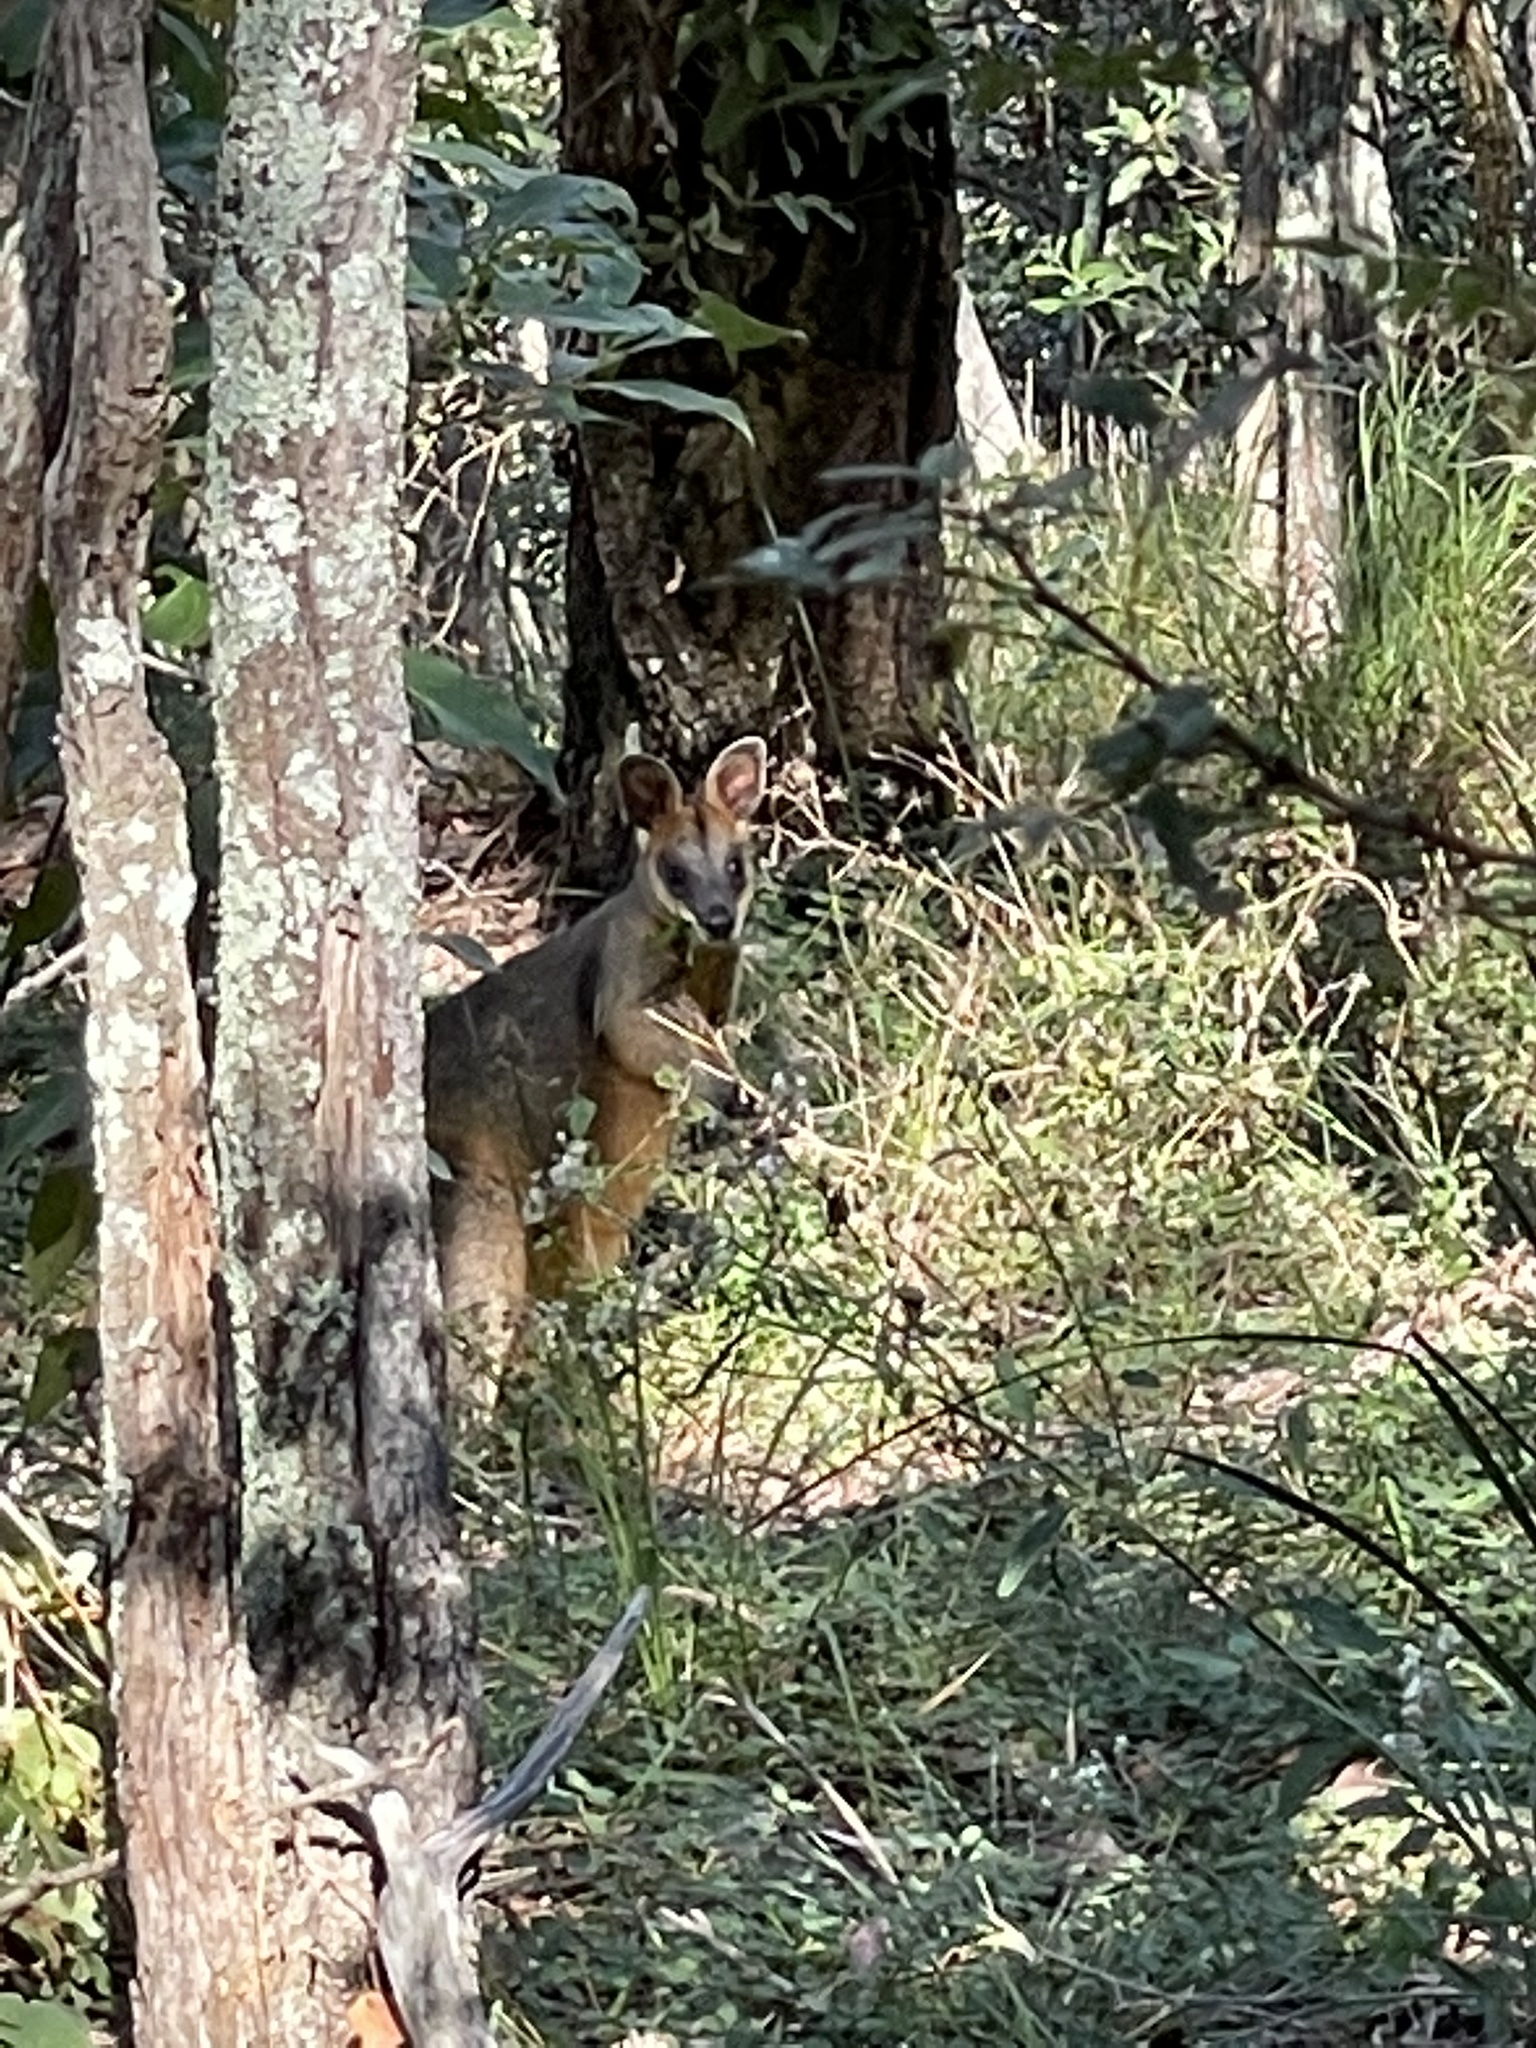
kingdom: Animalia
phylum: Chordata
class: Mammalia
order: Diprotodontia
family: Macropodidae
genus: Wallabia
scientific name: Wallabia bicolor
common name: Swamp wallaby
